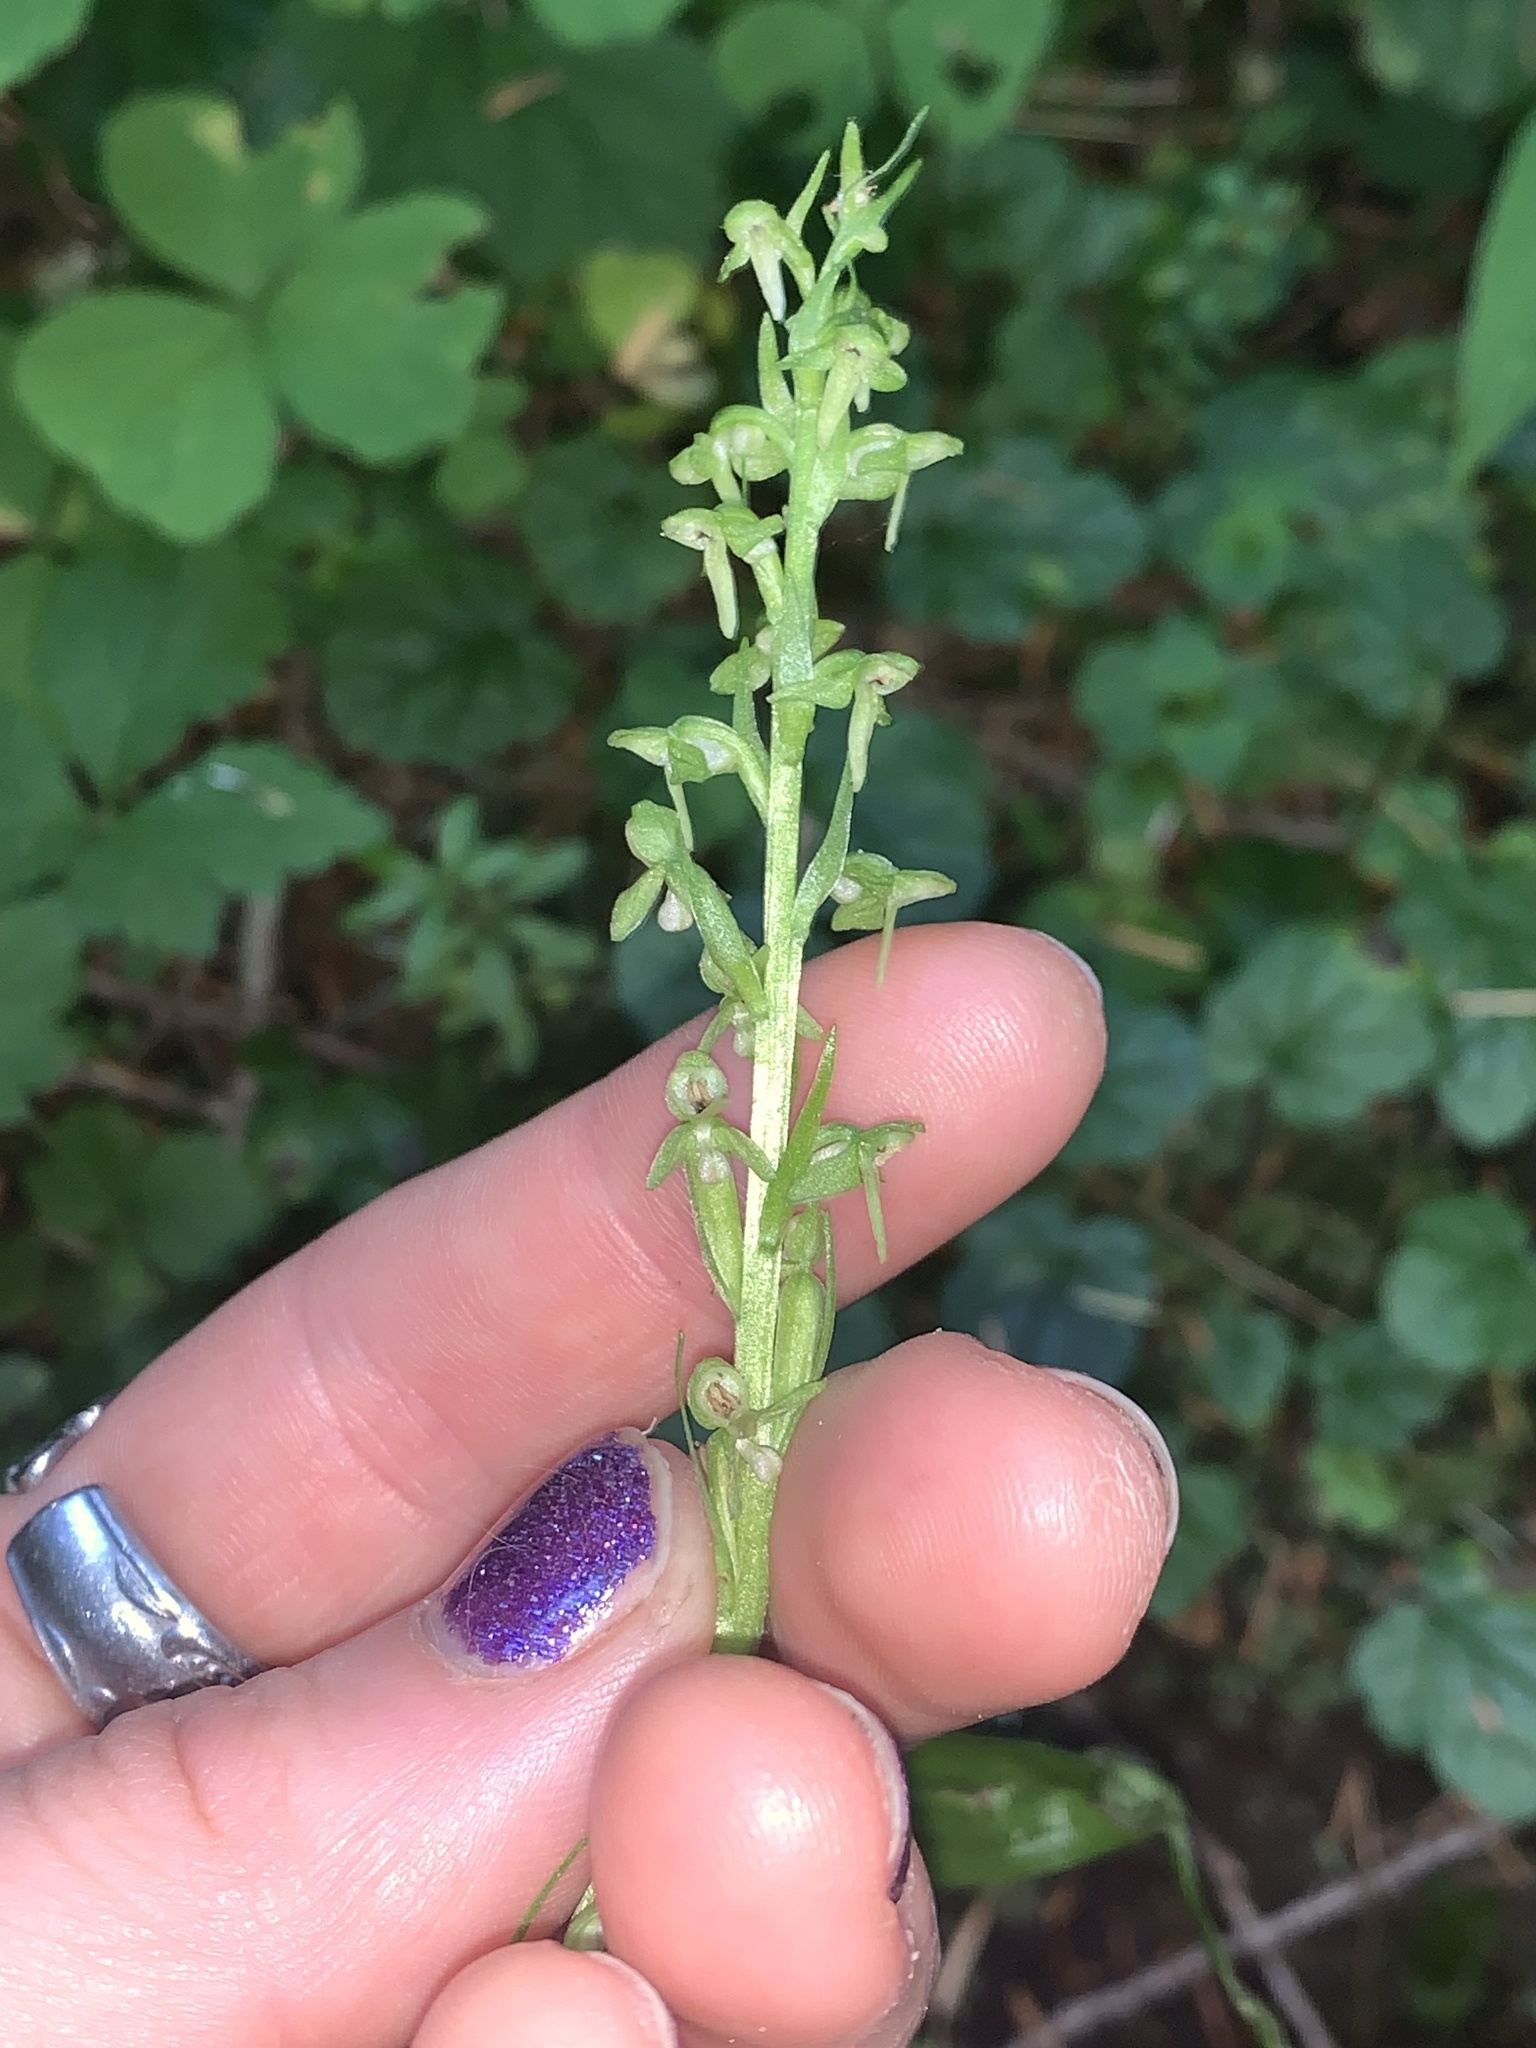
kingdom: Plantae
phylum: Tracheophyta
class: Liliopsida
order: Asparagales
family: Orchidaceae
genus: Platanthera
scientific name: Platanthera stricta
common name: Slender bog orchid
